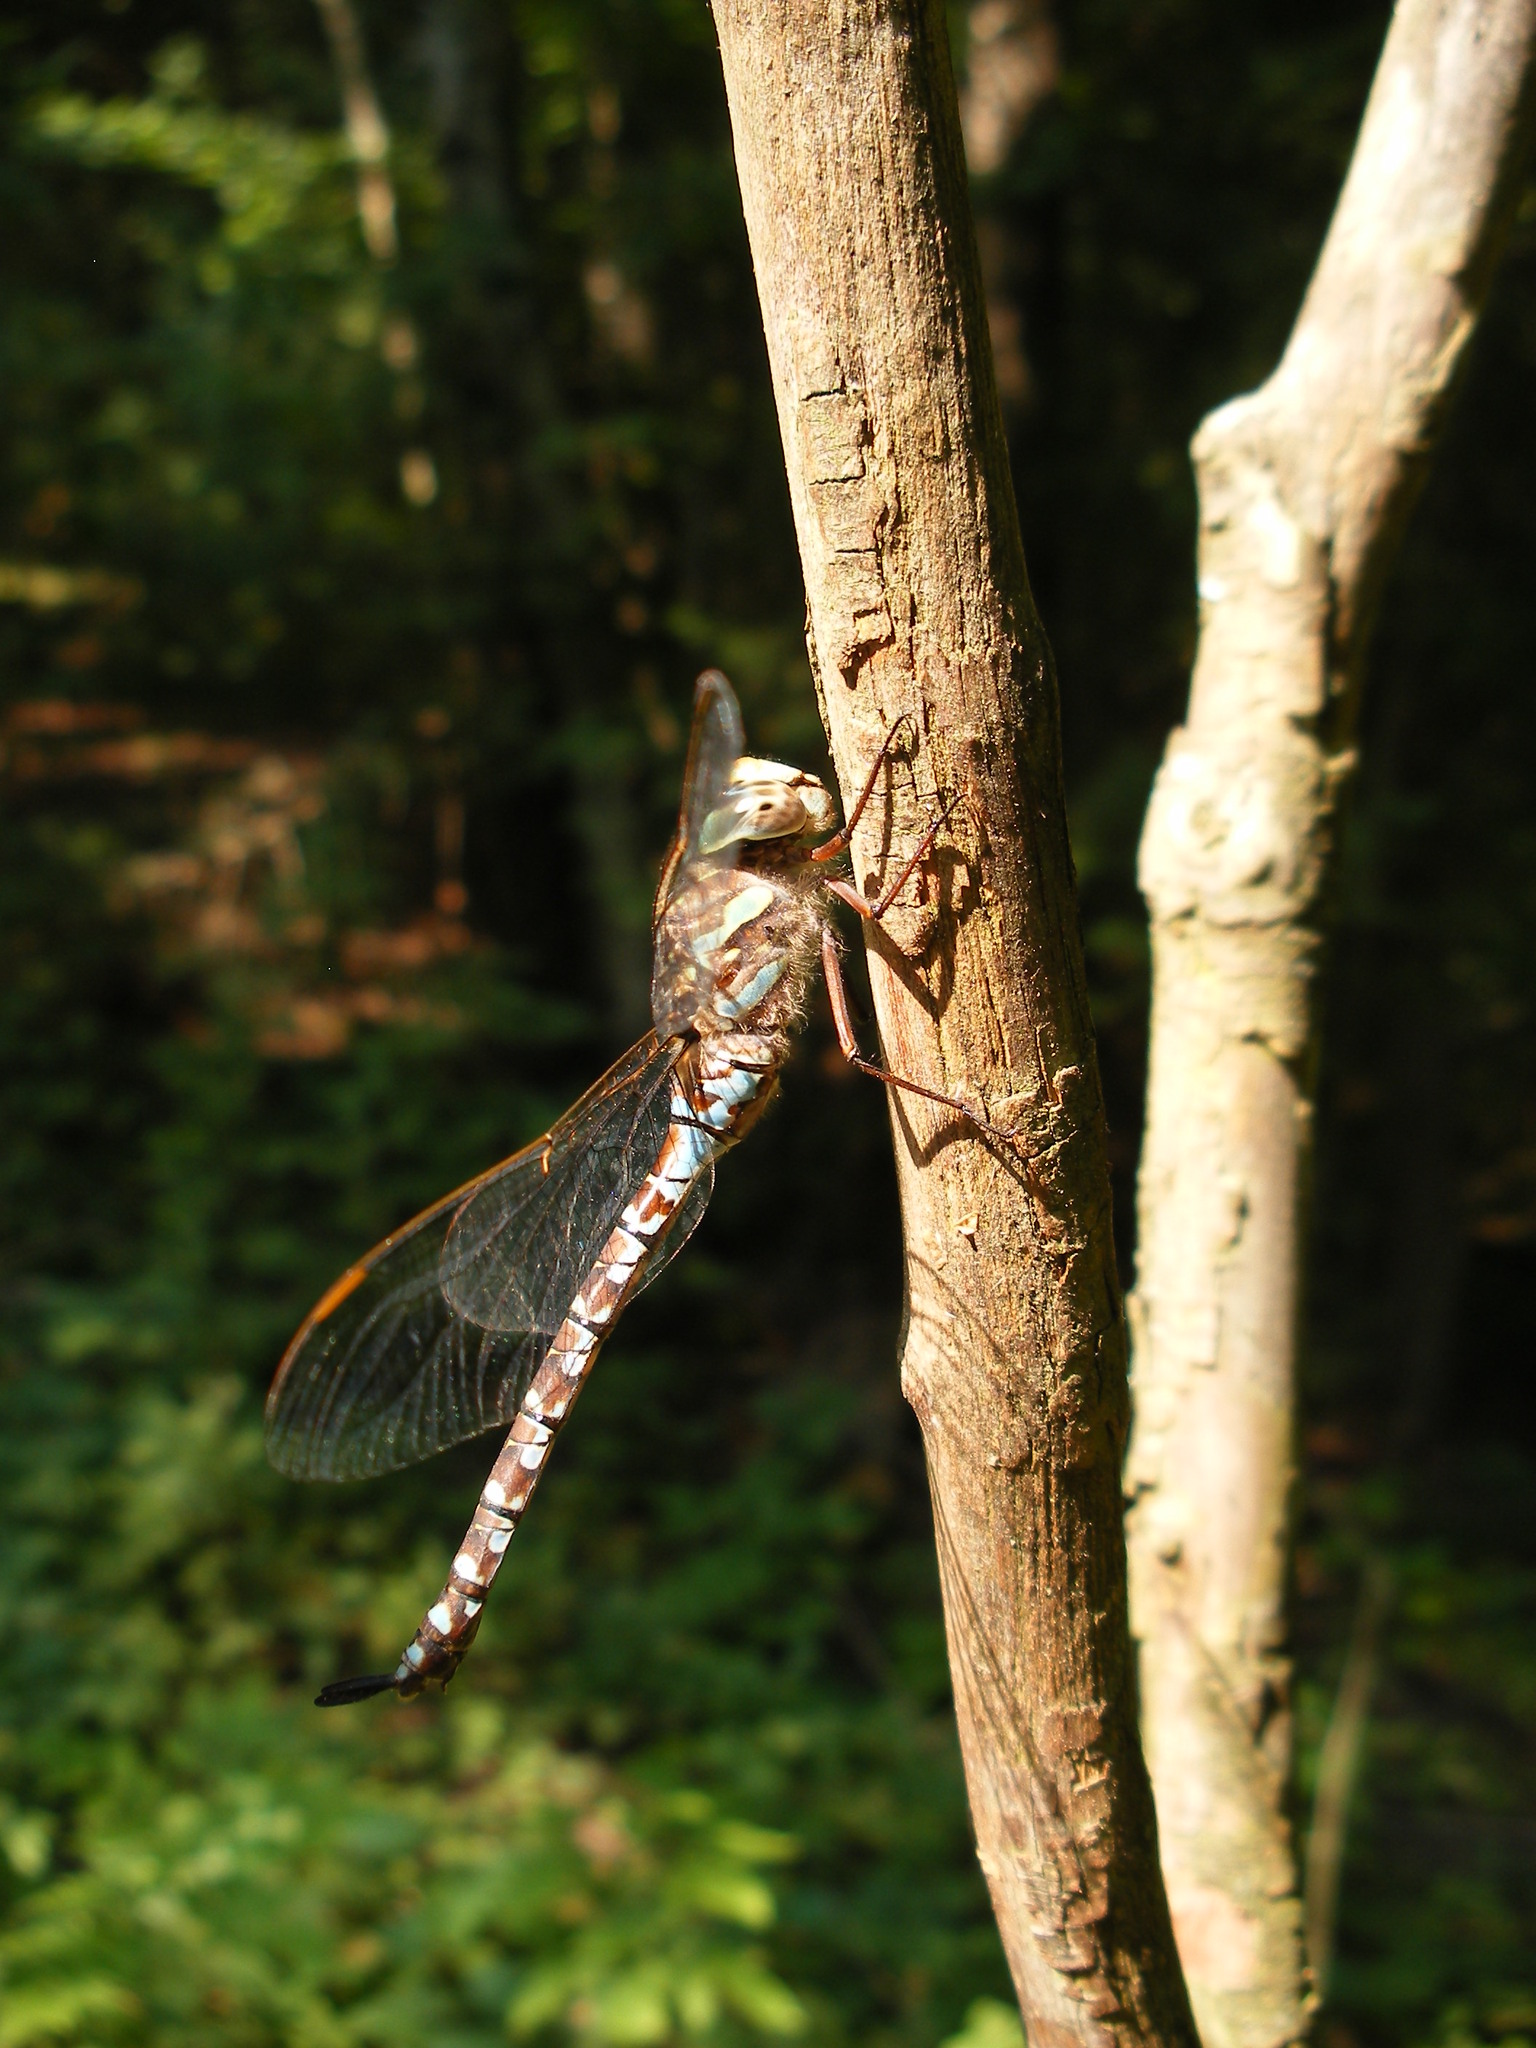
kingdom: Animalia
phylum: Arthropoda
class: Insecta
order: Odonata
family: Aeshnidae
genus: Aeshna
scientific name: Aeshna canadensis
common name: Canada darner
